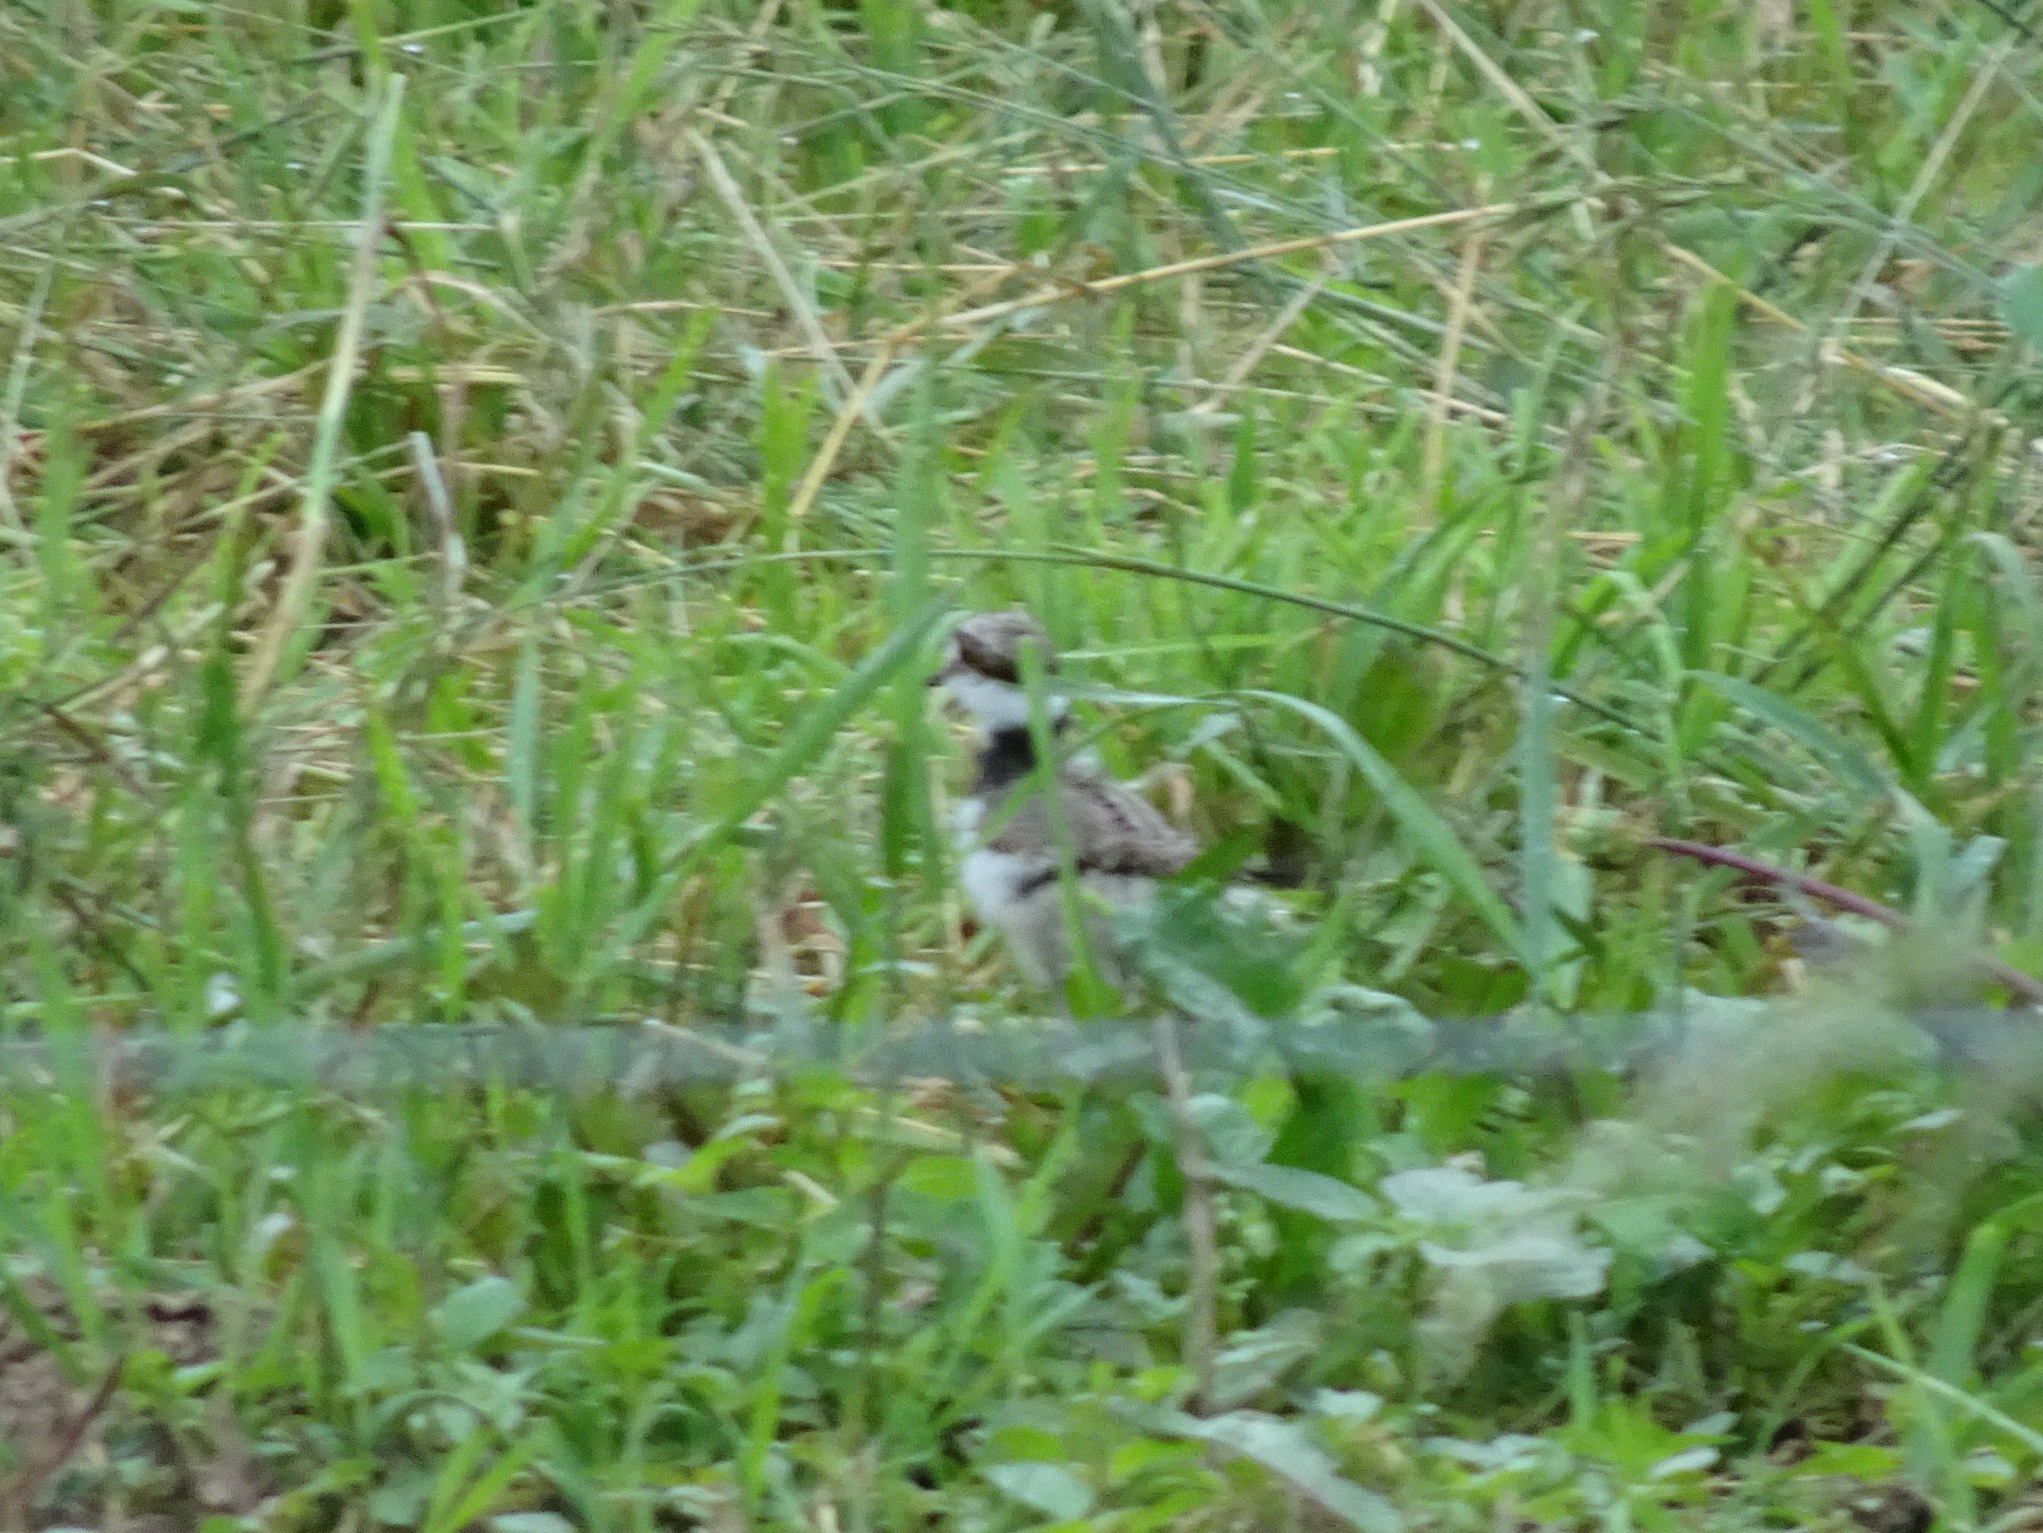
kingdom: Animalia
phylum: Chordata
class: Aves
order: Charadriiformes
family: Charadriidae
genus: Charadrius
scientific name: Charadrius vociferus
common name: Killdeer
